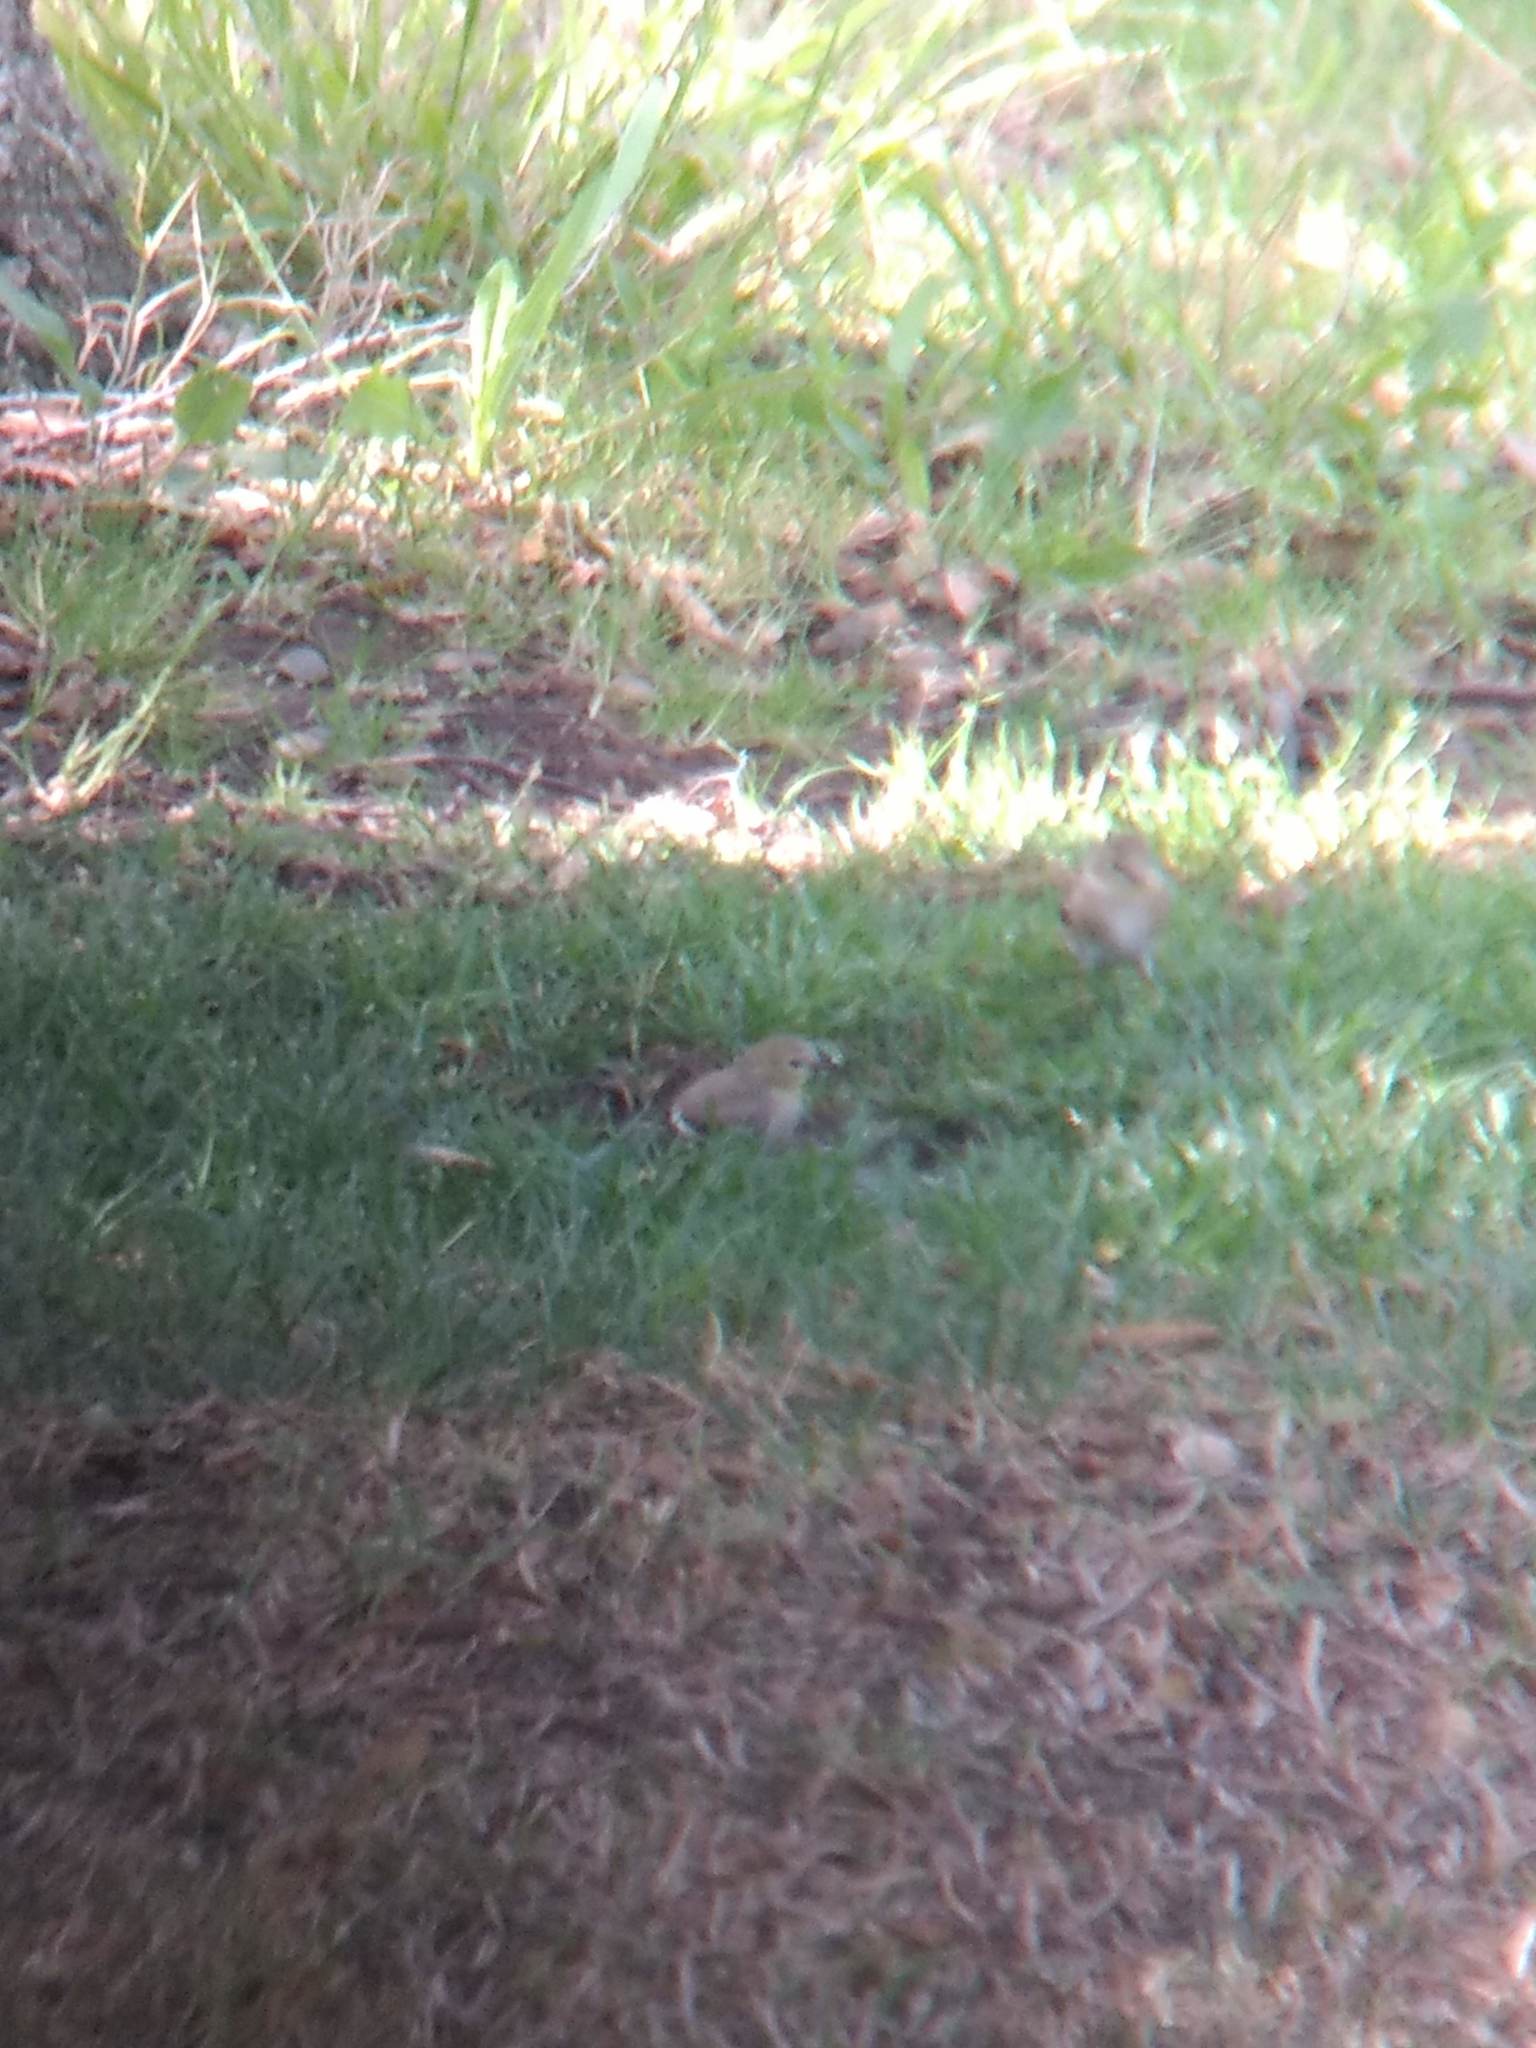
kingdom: Animalia
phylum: Chordata
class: Aves
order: Passeriformes
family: Fringillidae
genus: Spinus
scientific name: Spinus tristis
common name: American goldfinch
